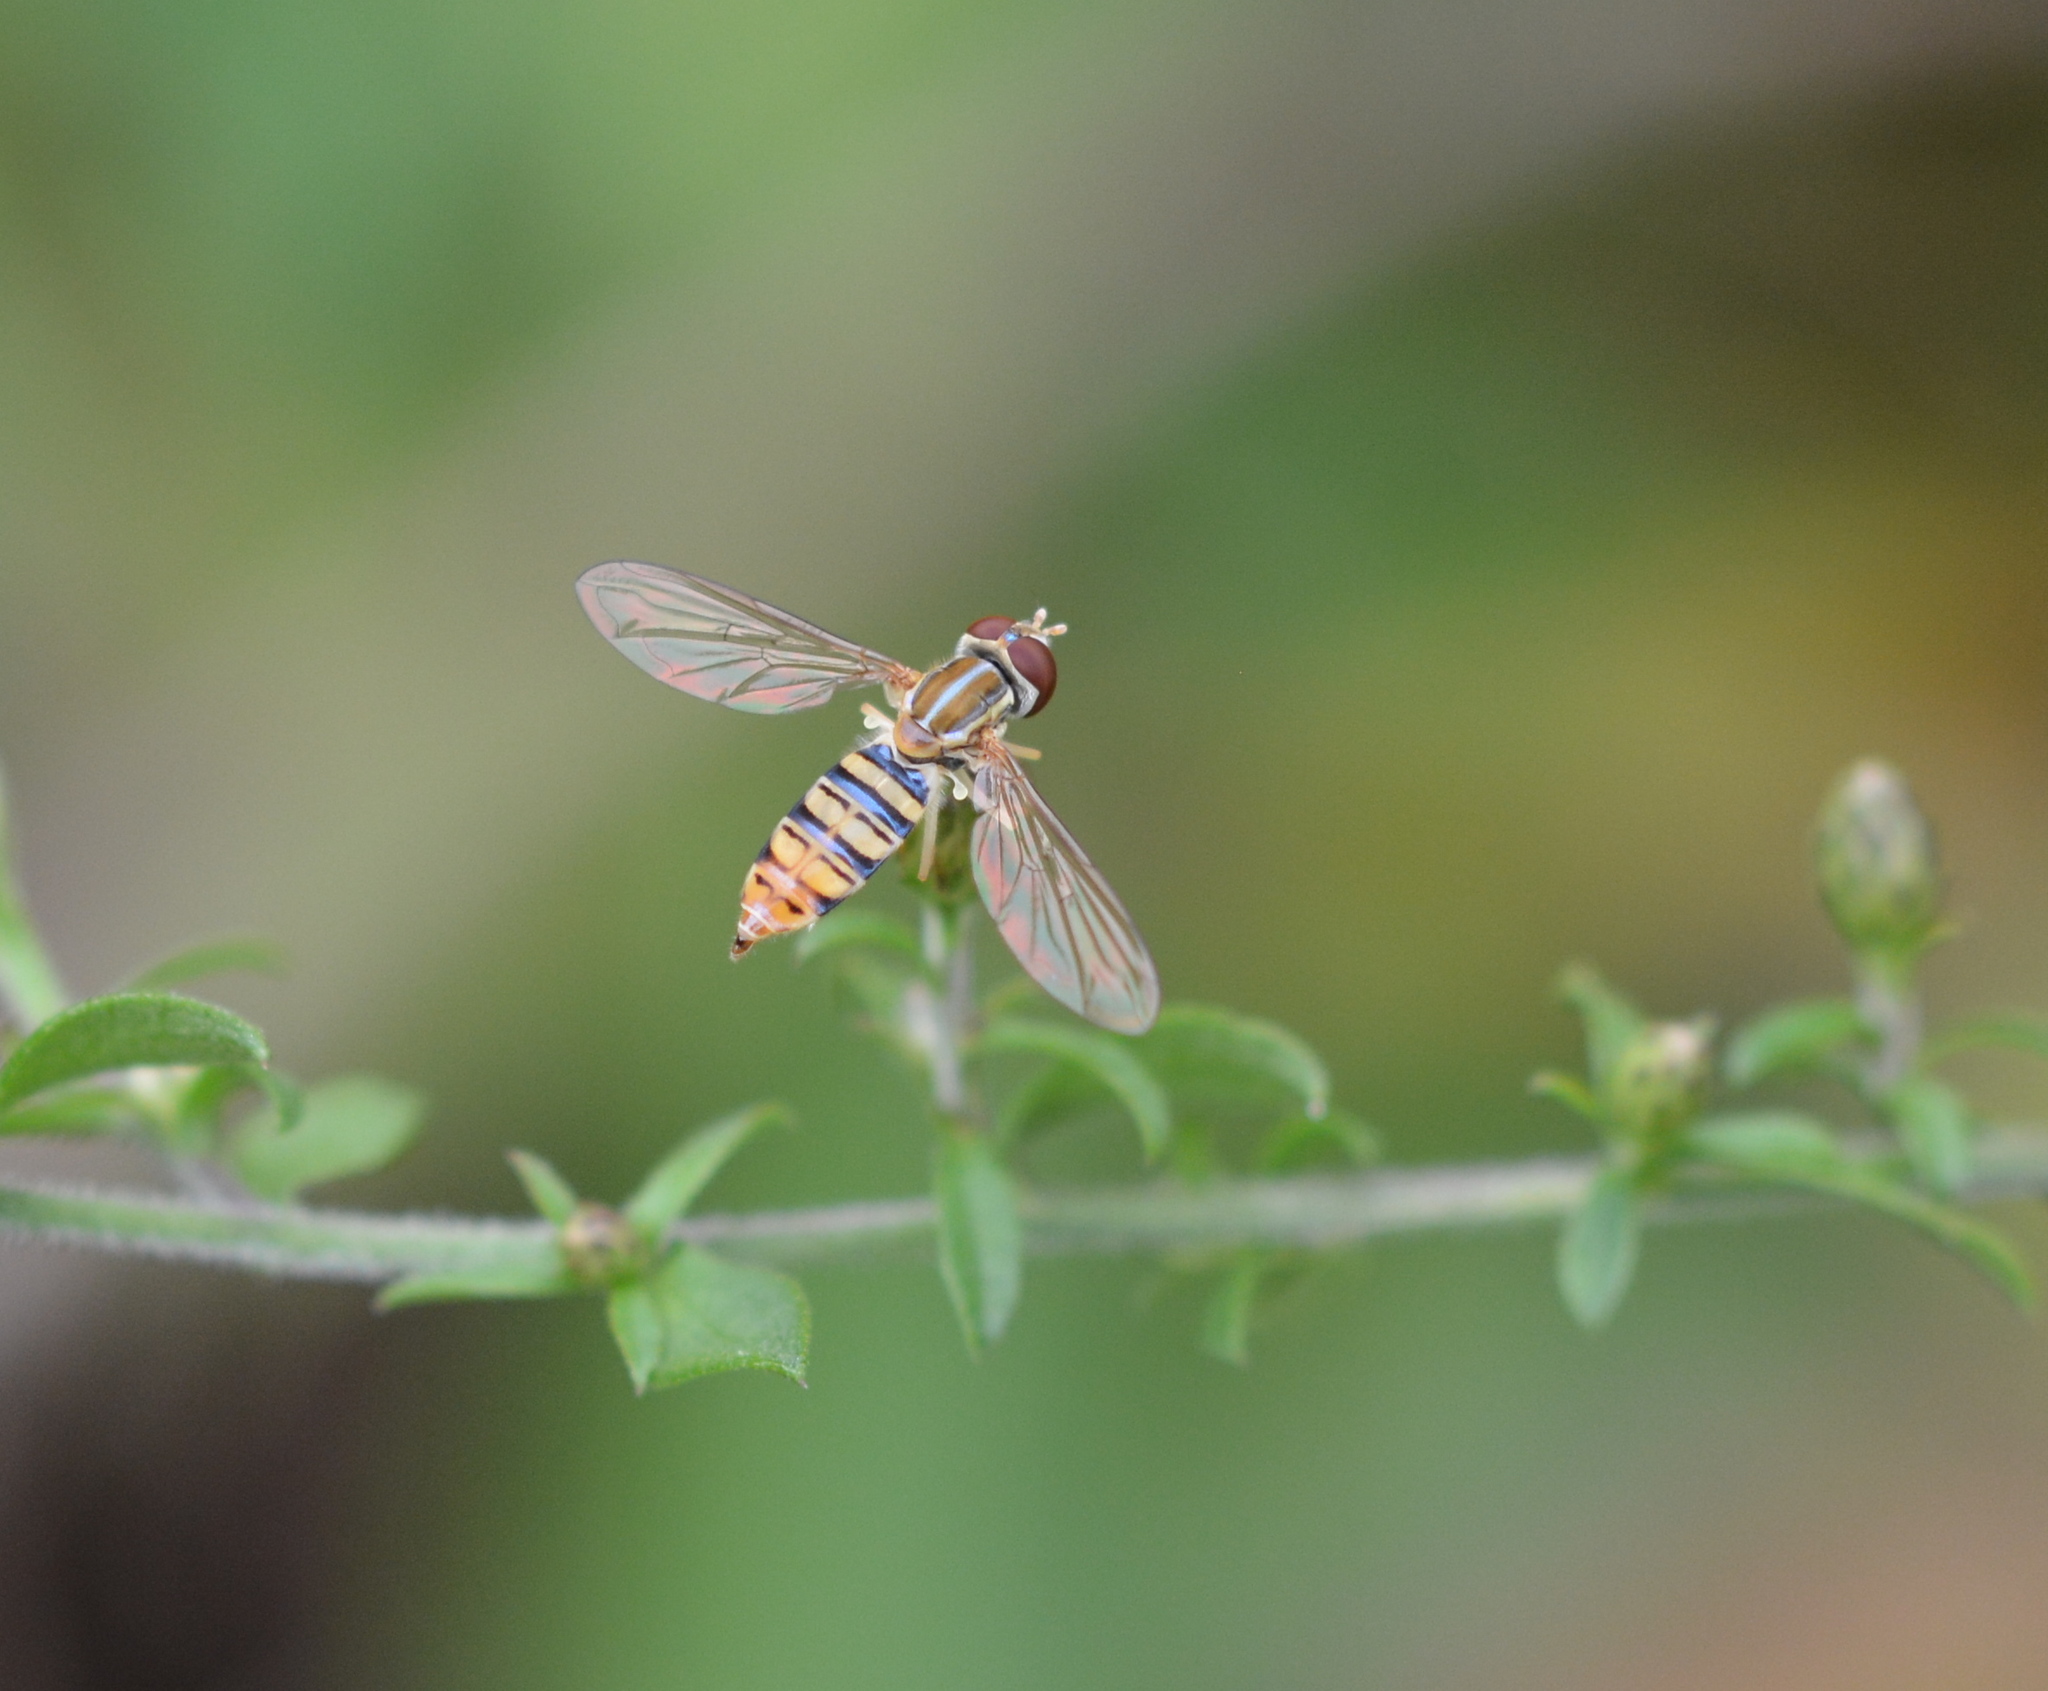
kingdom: Animalia
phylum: Arthropoda
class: Insecta
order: Diptera
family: Syrphidae
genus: Toxomerus
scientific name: Toxomerus politus
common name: Maize calligrapher
